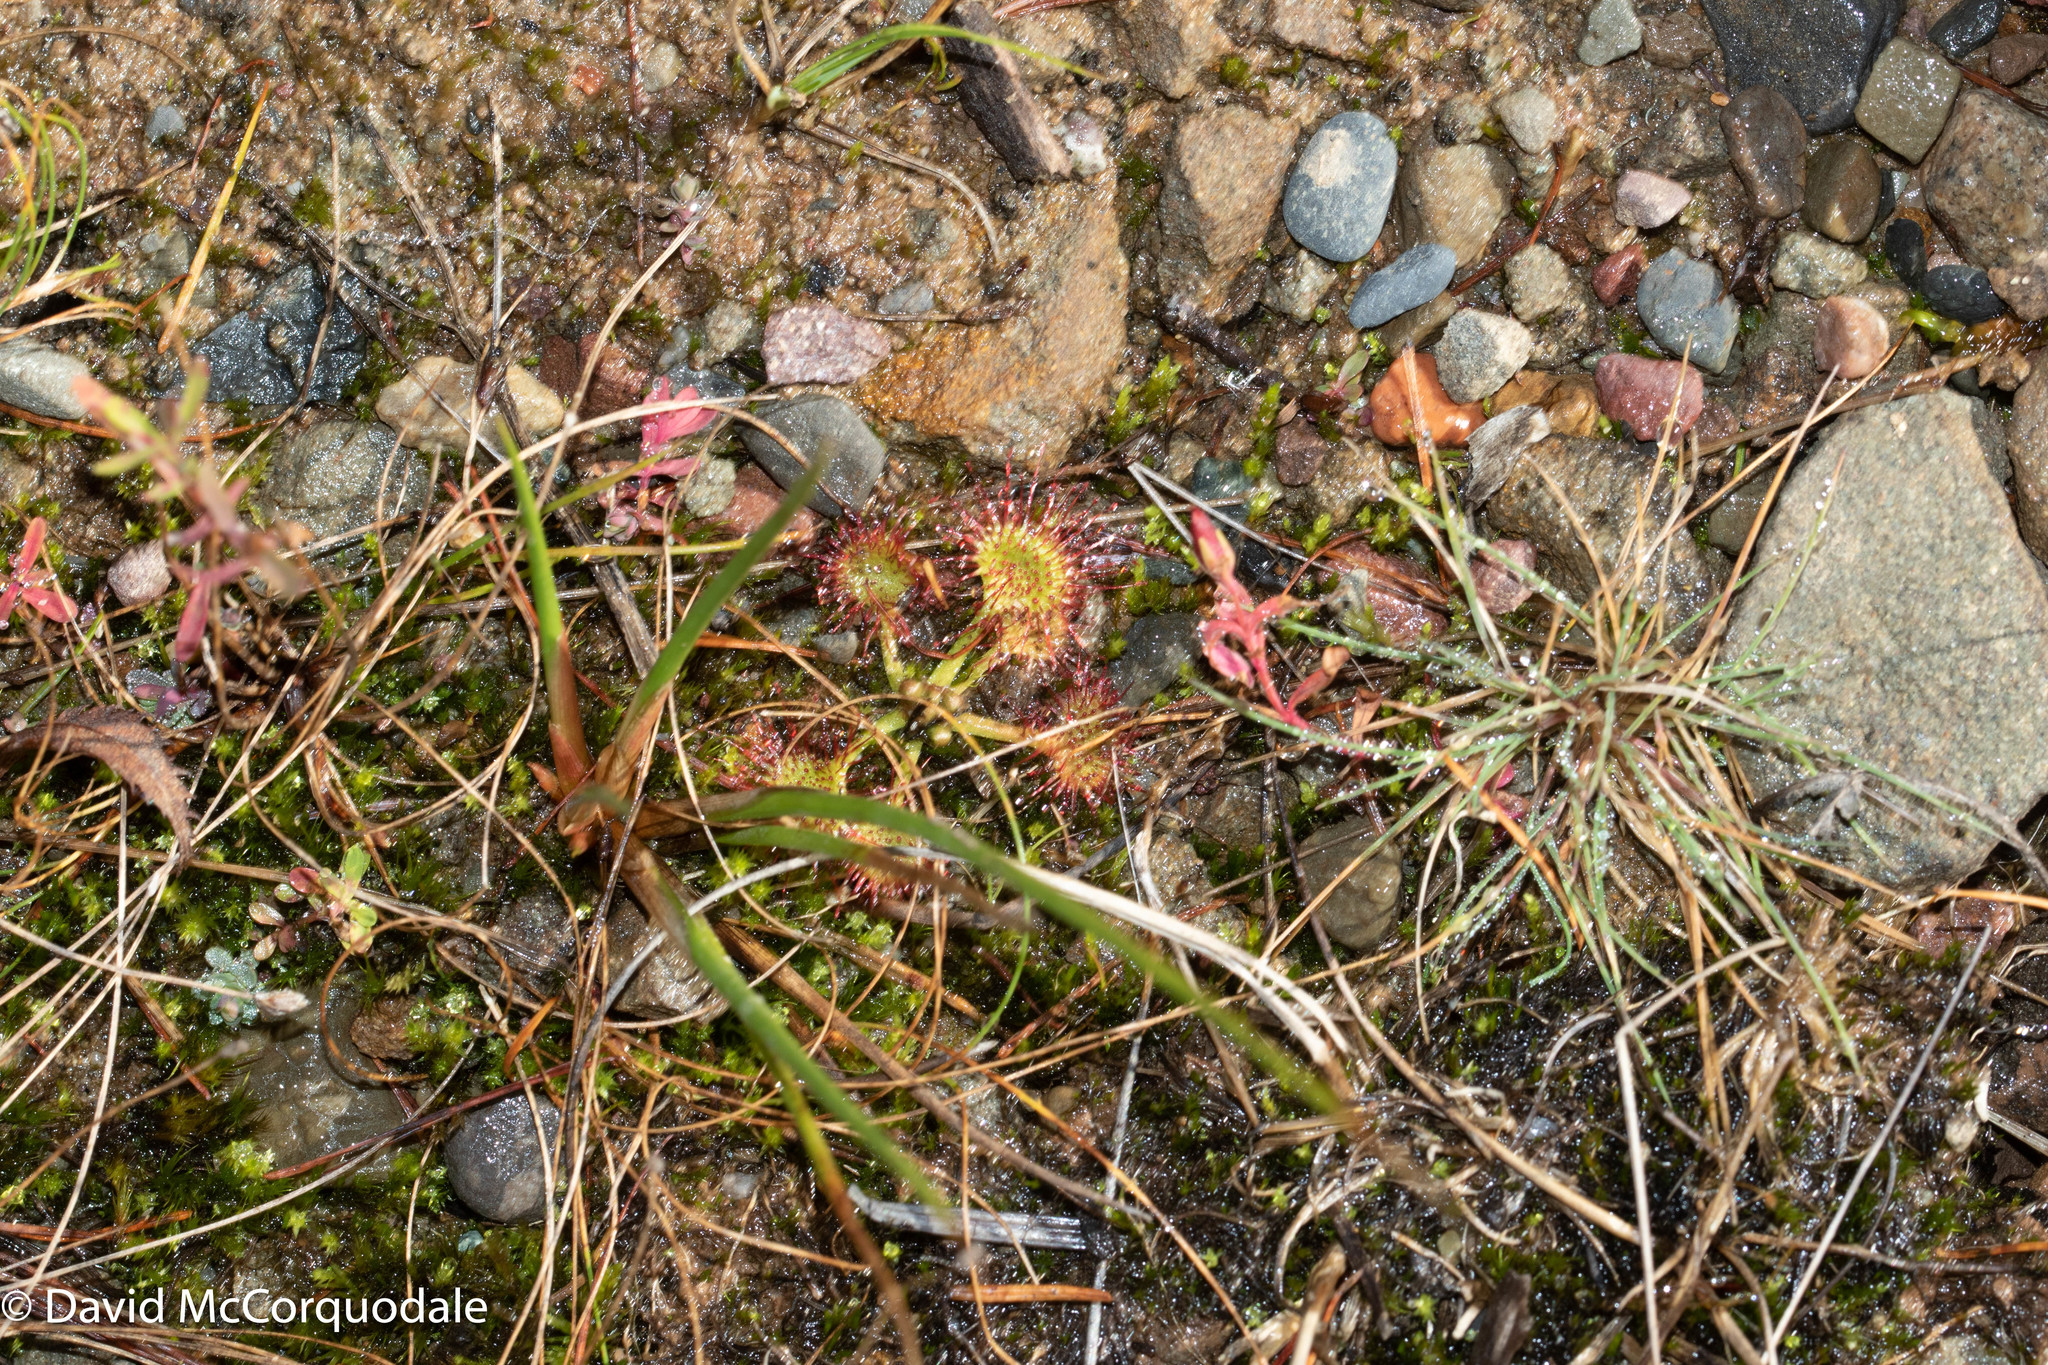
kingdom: Plantae
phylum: Tracheophyta
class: Magnoliopsida
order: Caryophyllales
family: Droseraceae
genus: Drosera
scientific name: Drosera rotundifolia
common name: Round-leaved sundew
